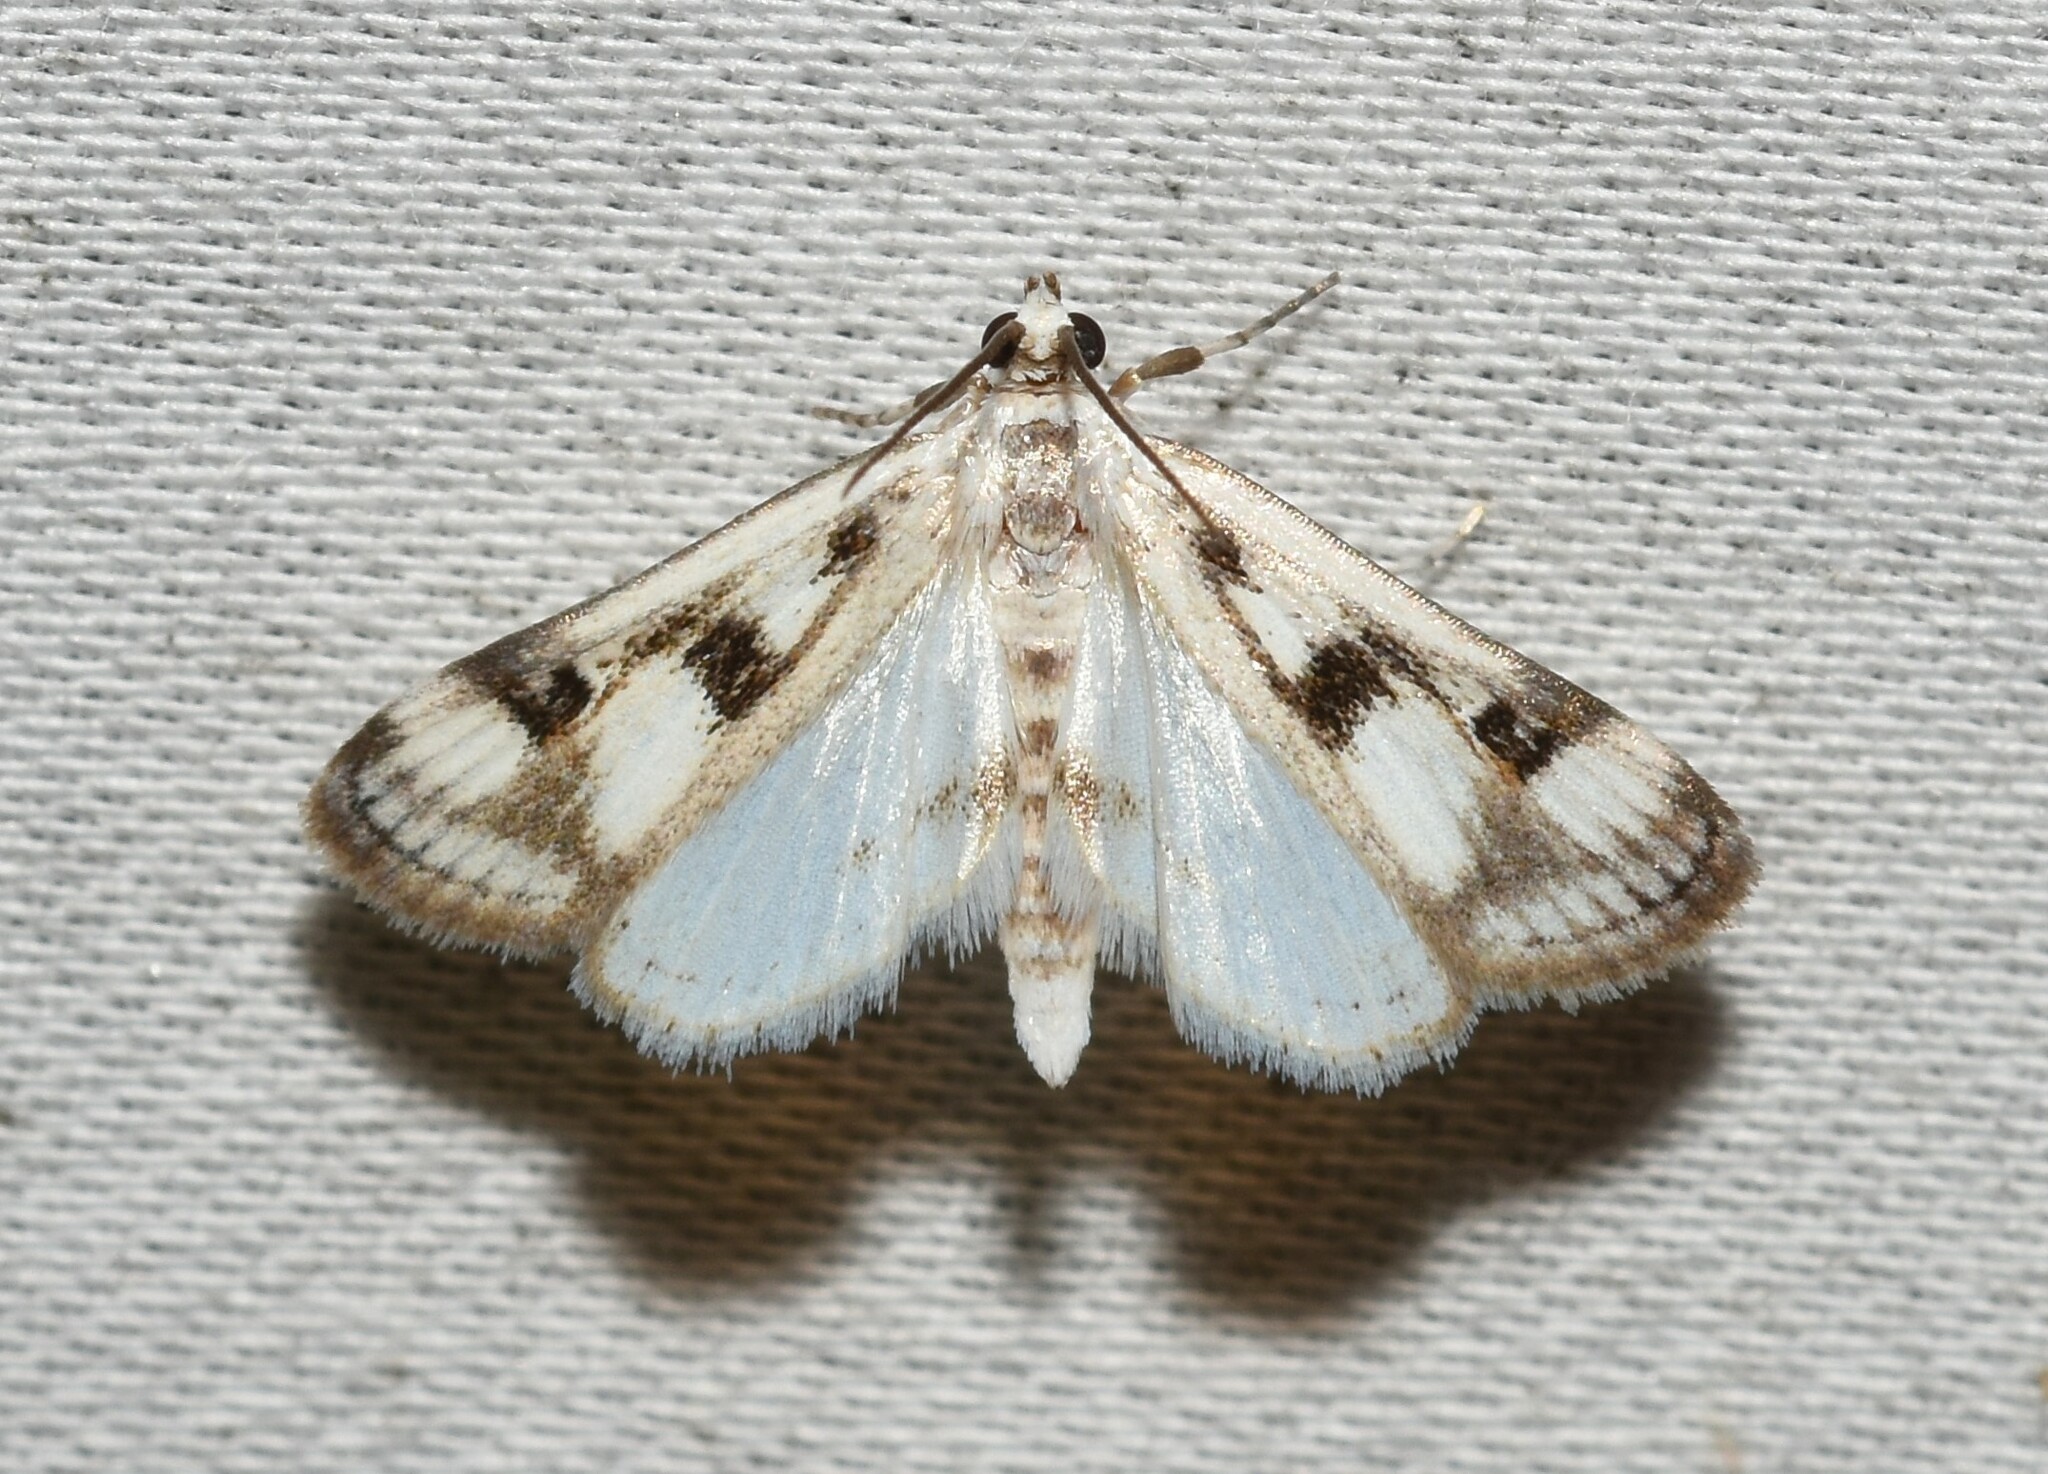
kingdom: Animalia
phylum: Arthropoda
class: Insecta
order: Lepidoptera
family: Crambidae
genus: Parapoynx
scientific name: Parapoynx maculalis
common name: Polymorphic pondweed moth
